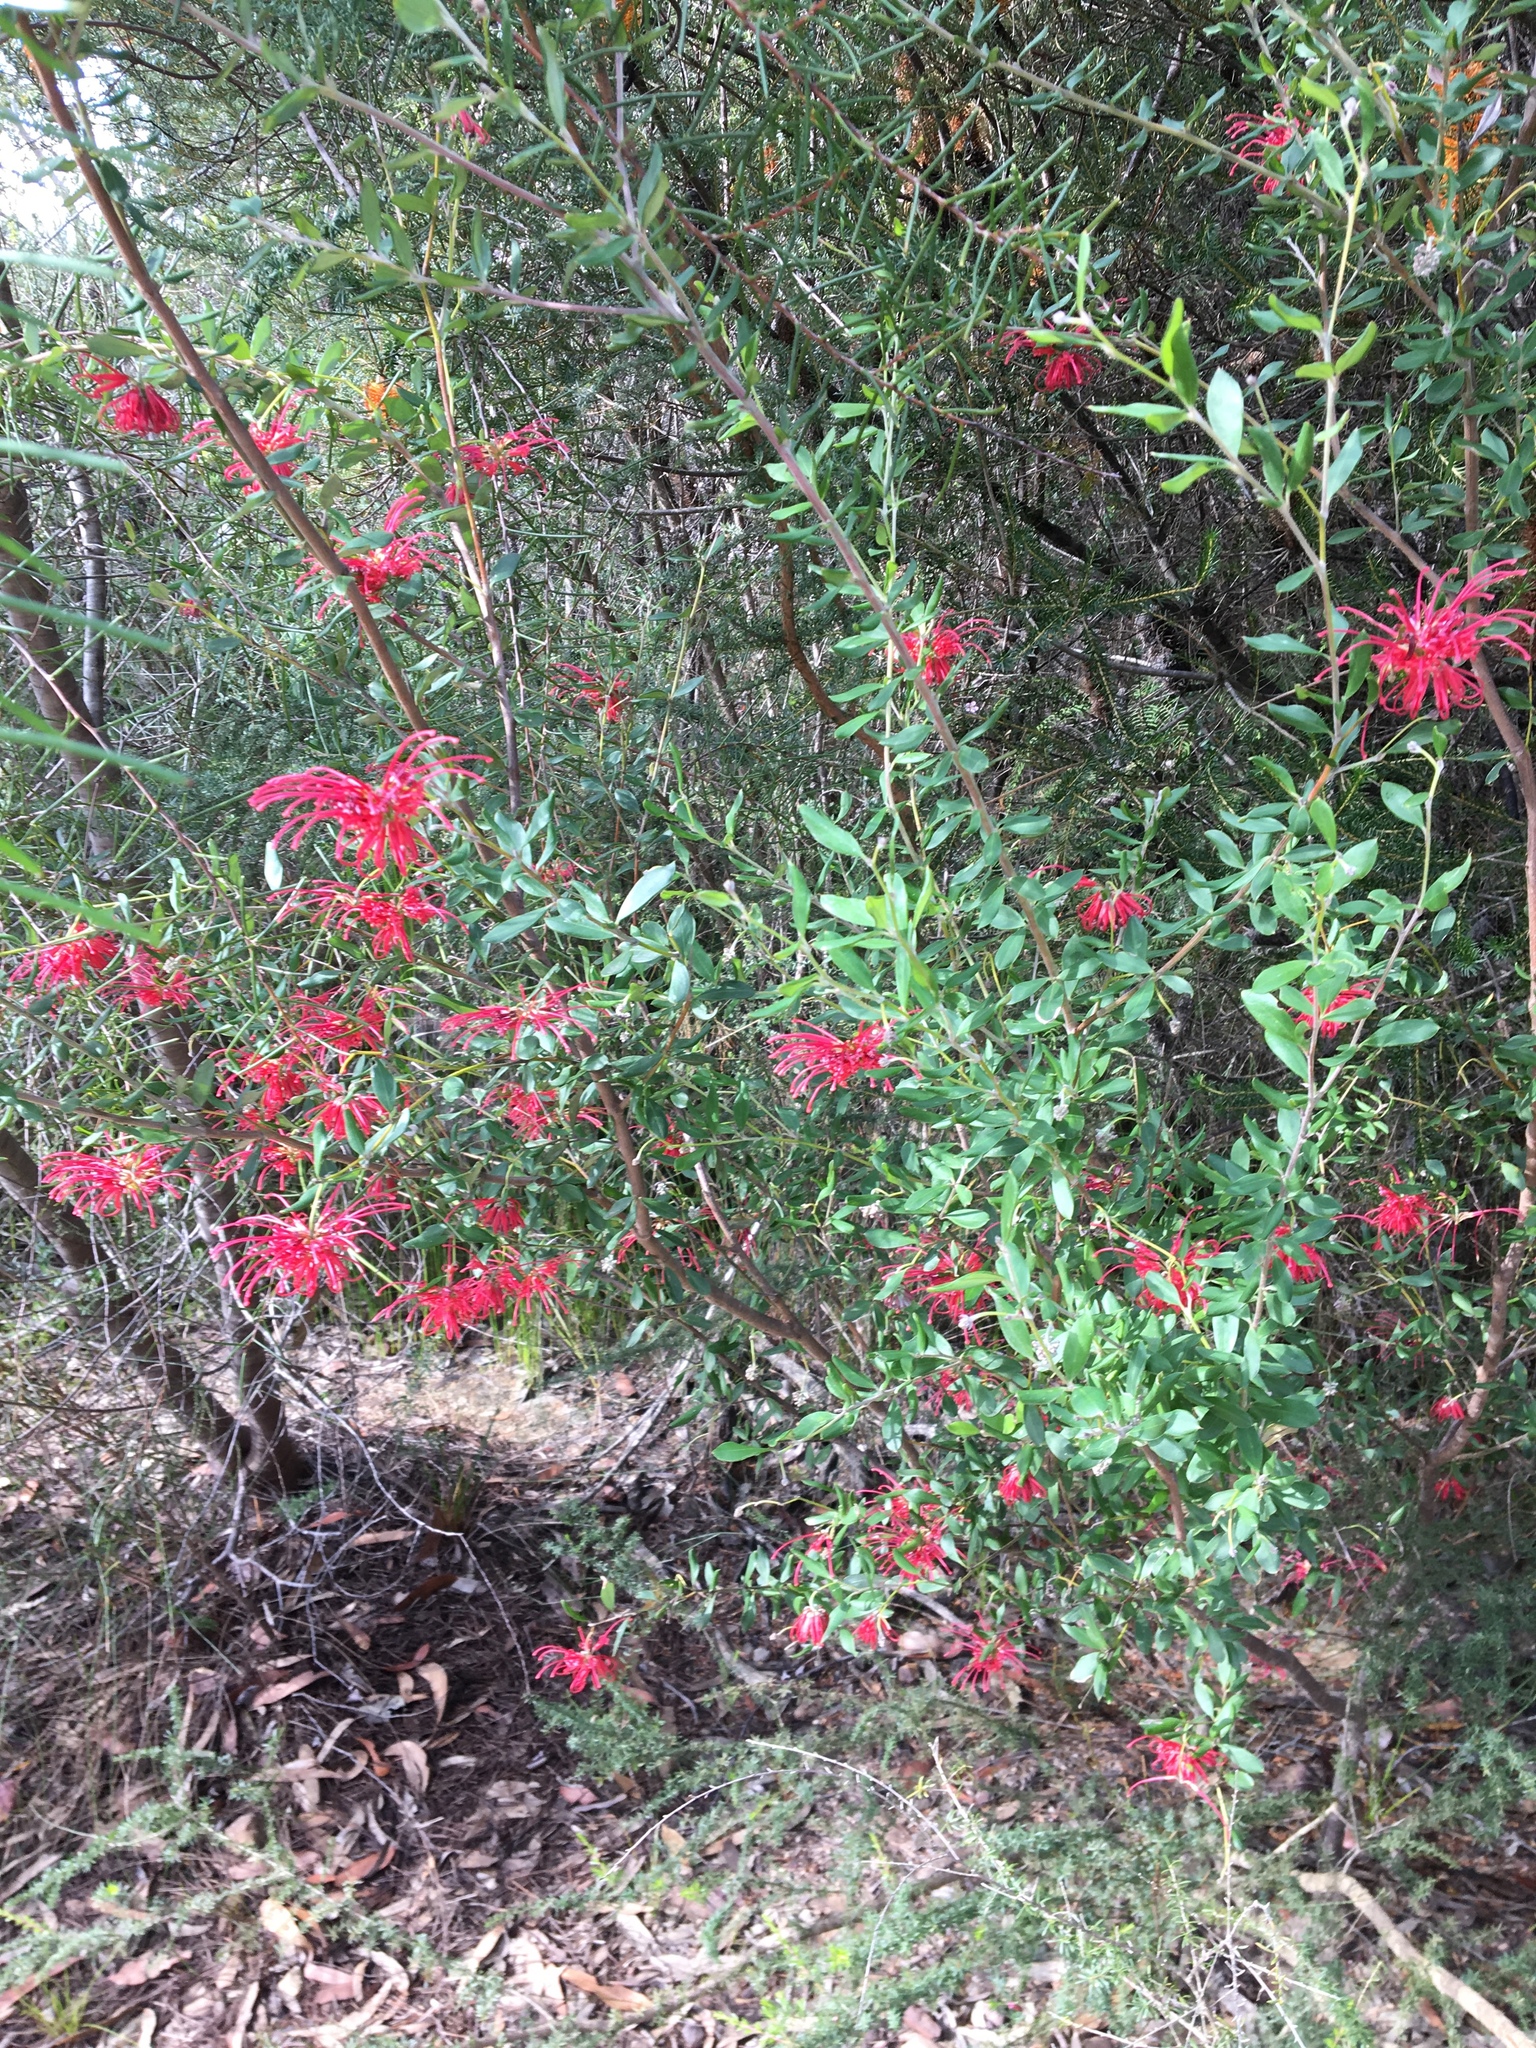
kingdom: Plantae
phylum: Tracheophyta
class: Magnoliopsida
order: Proteales
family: Proteaceae
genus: Grevillea
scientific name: Grevillea speciosa
